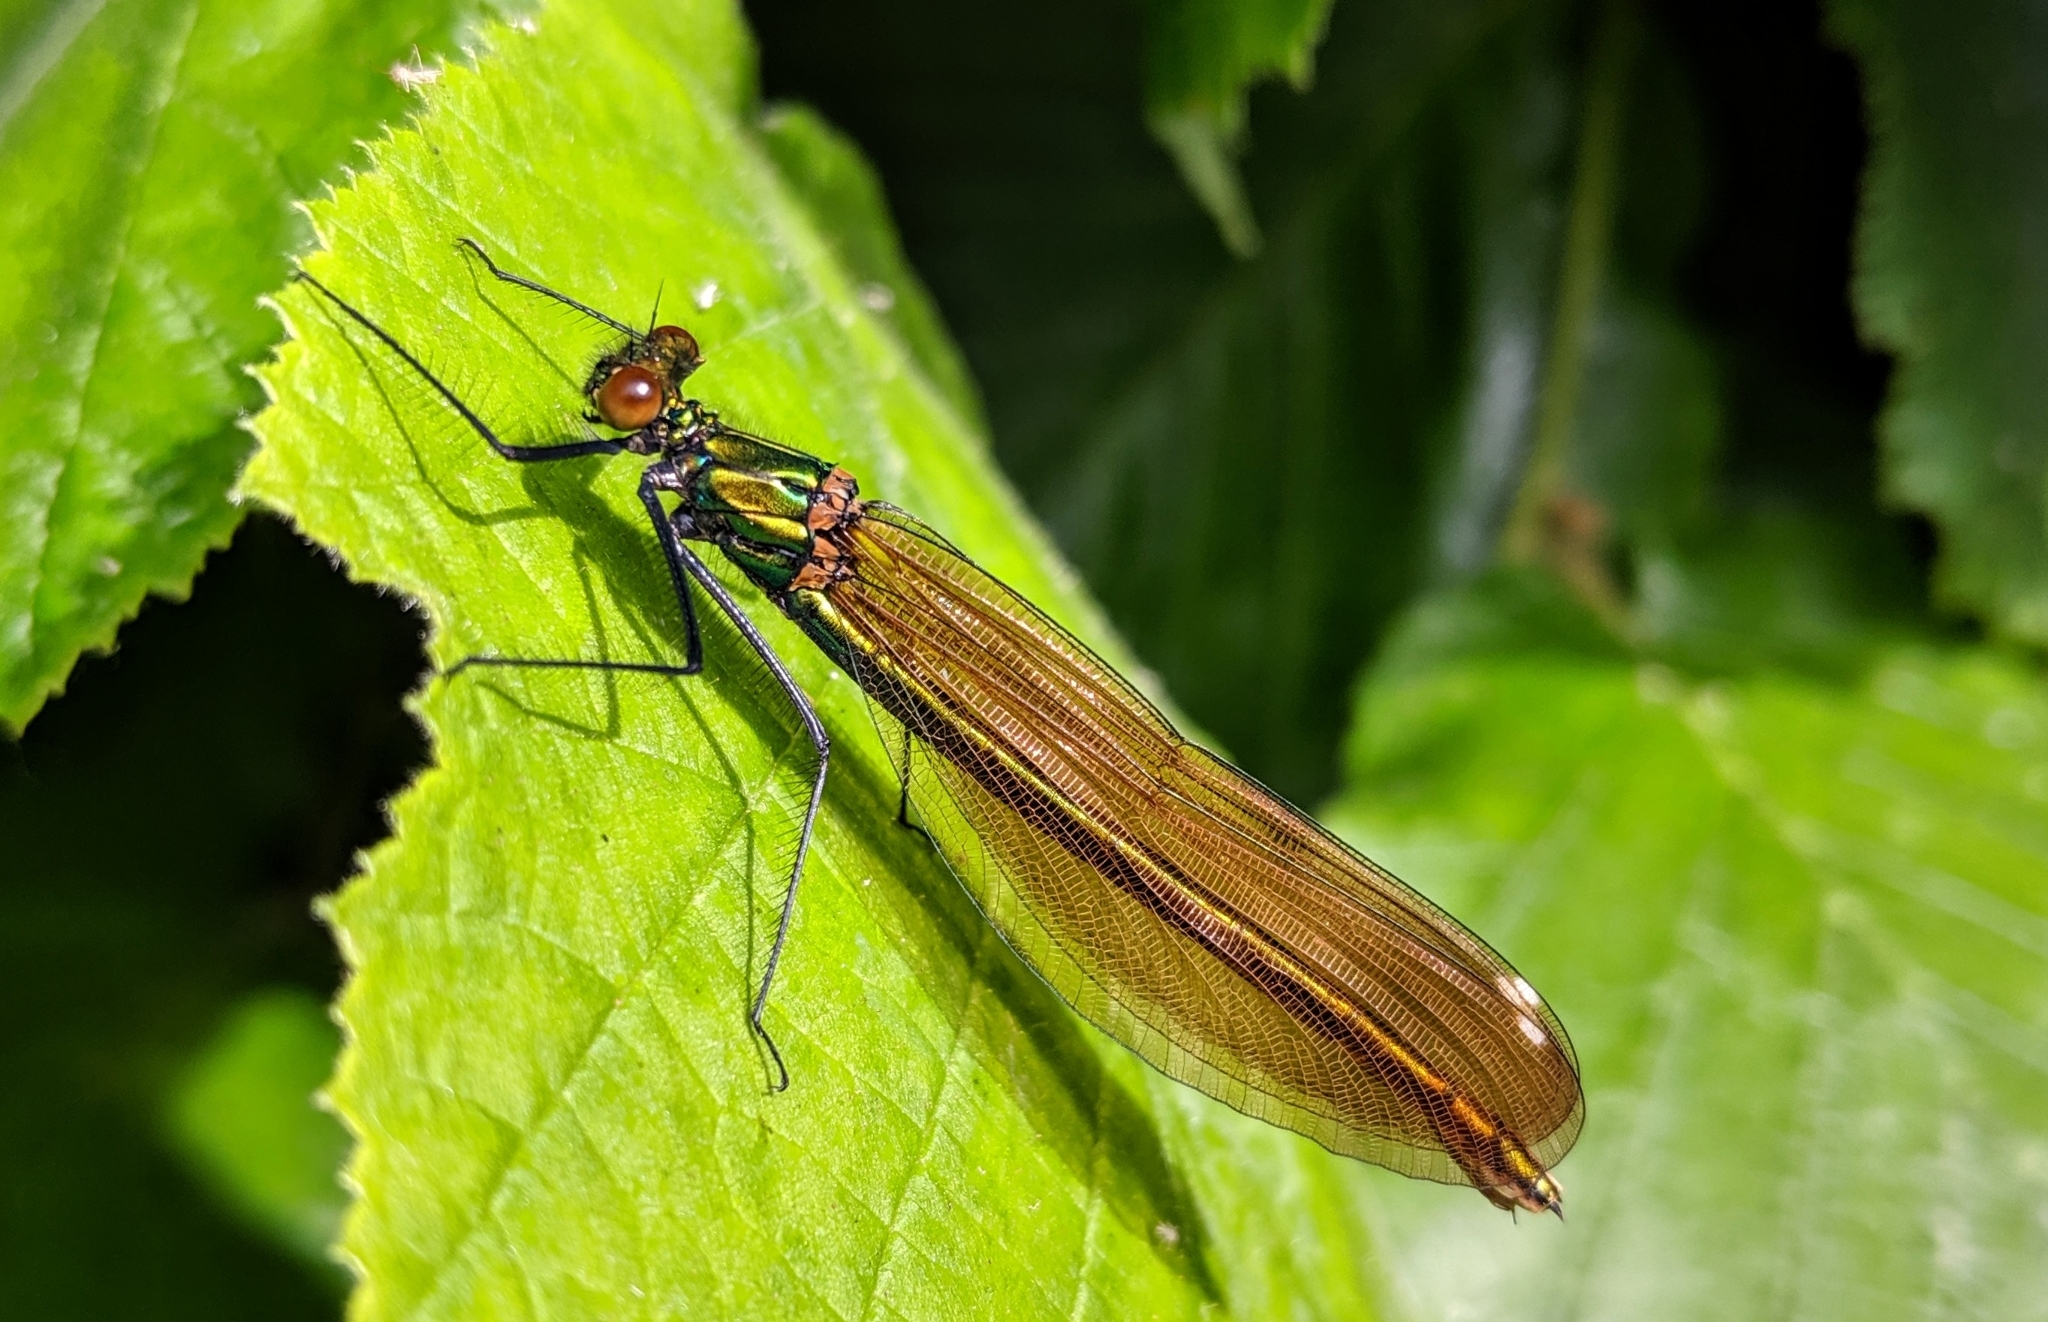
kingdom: Animalia
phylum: Arthropoda
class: Insecta
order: Odonata
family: Calopterygidae
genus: Calopteryx
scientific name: Calopteryx virgo
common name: Beautiful demoiselle
